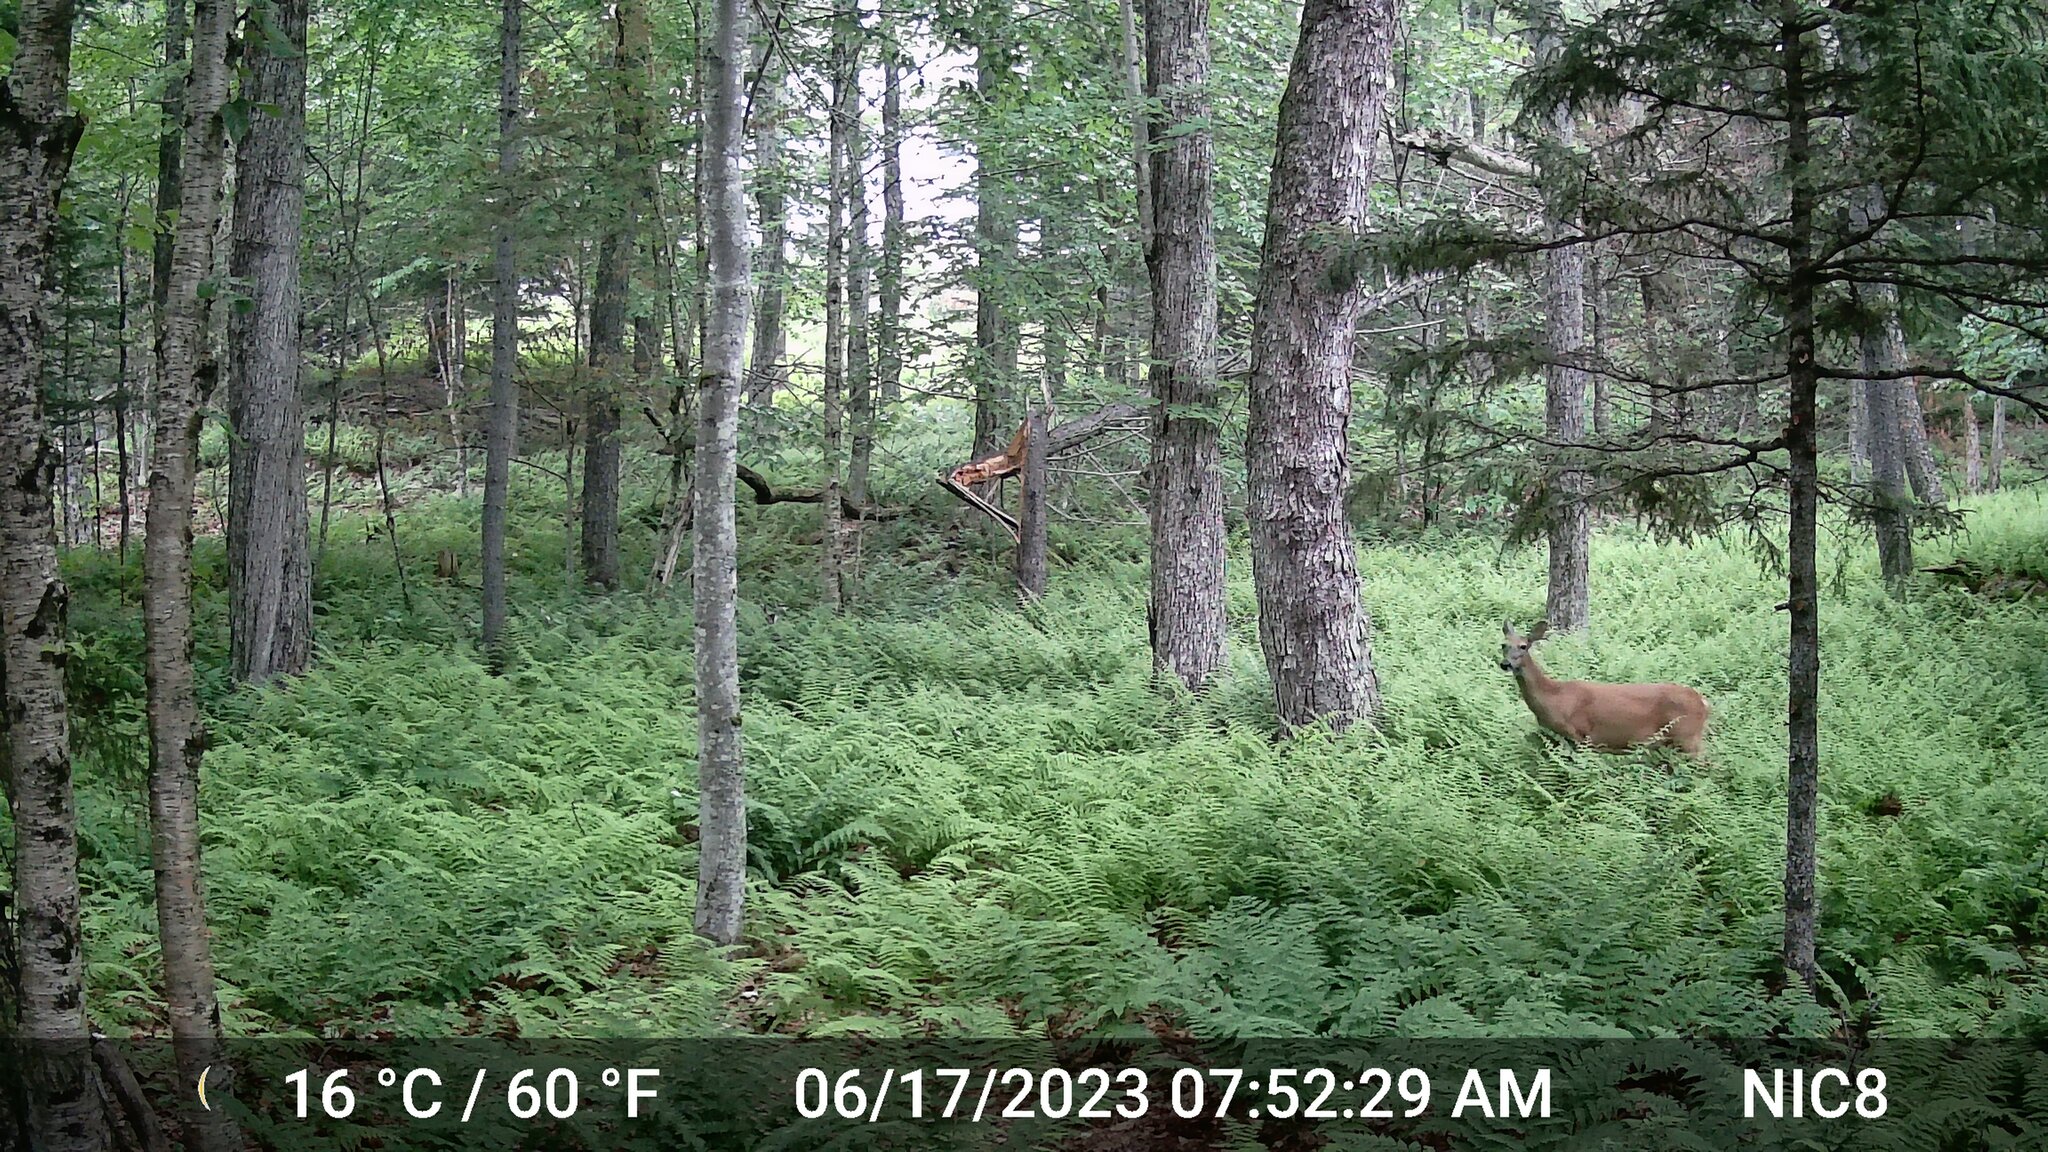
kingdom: Animalia
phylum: Chordata
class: Mammalia
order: Artiodactyla
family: Cervidae
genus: Odocoileus
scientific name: Odocoileus virginianus
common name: White-tailed deer
